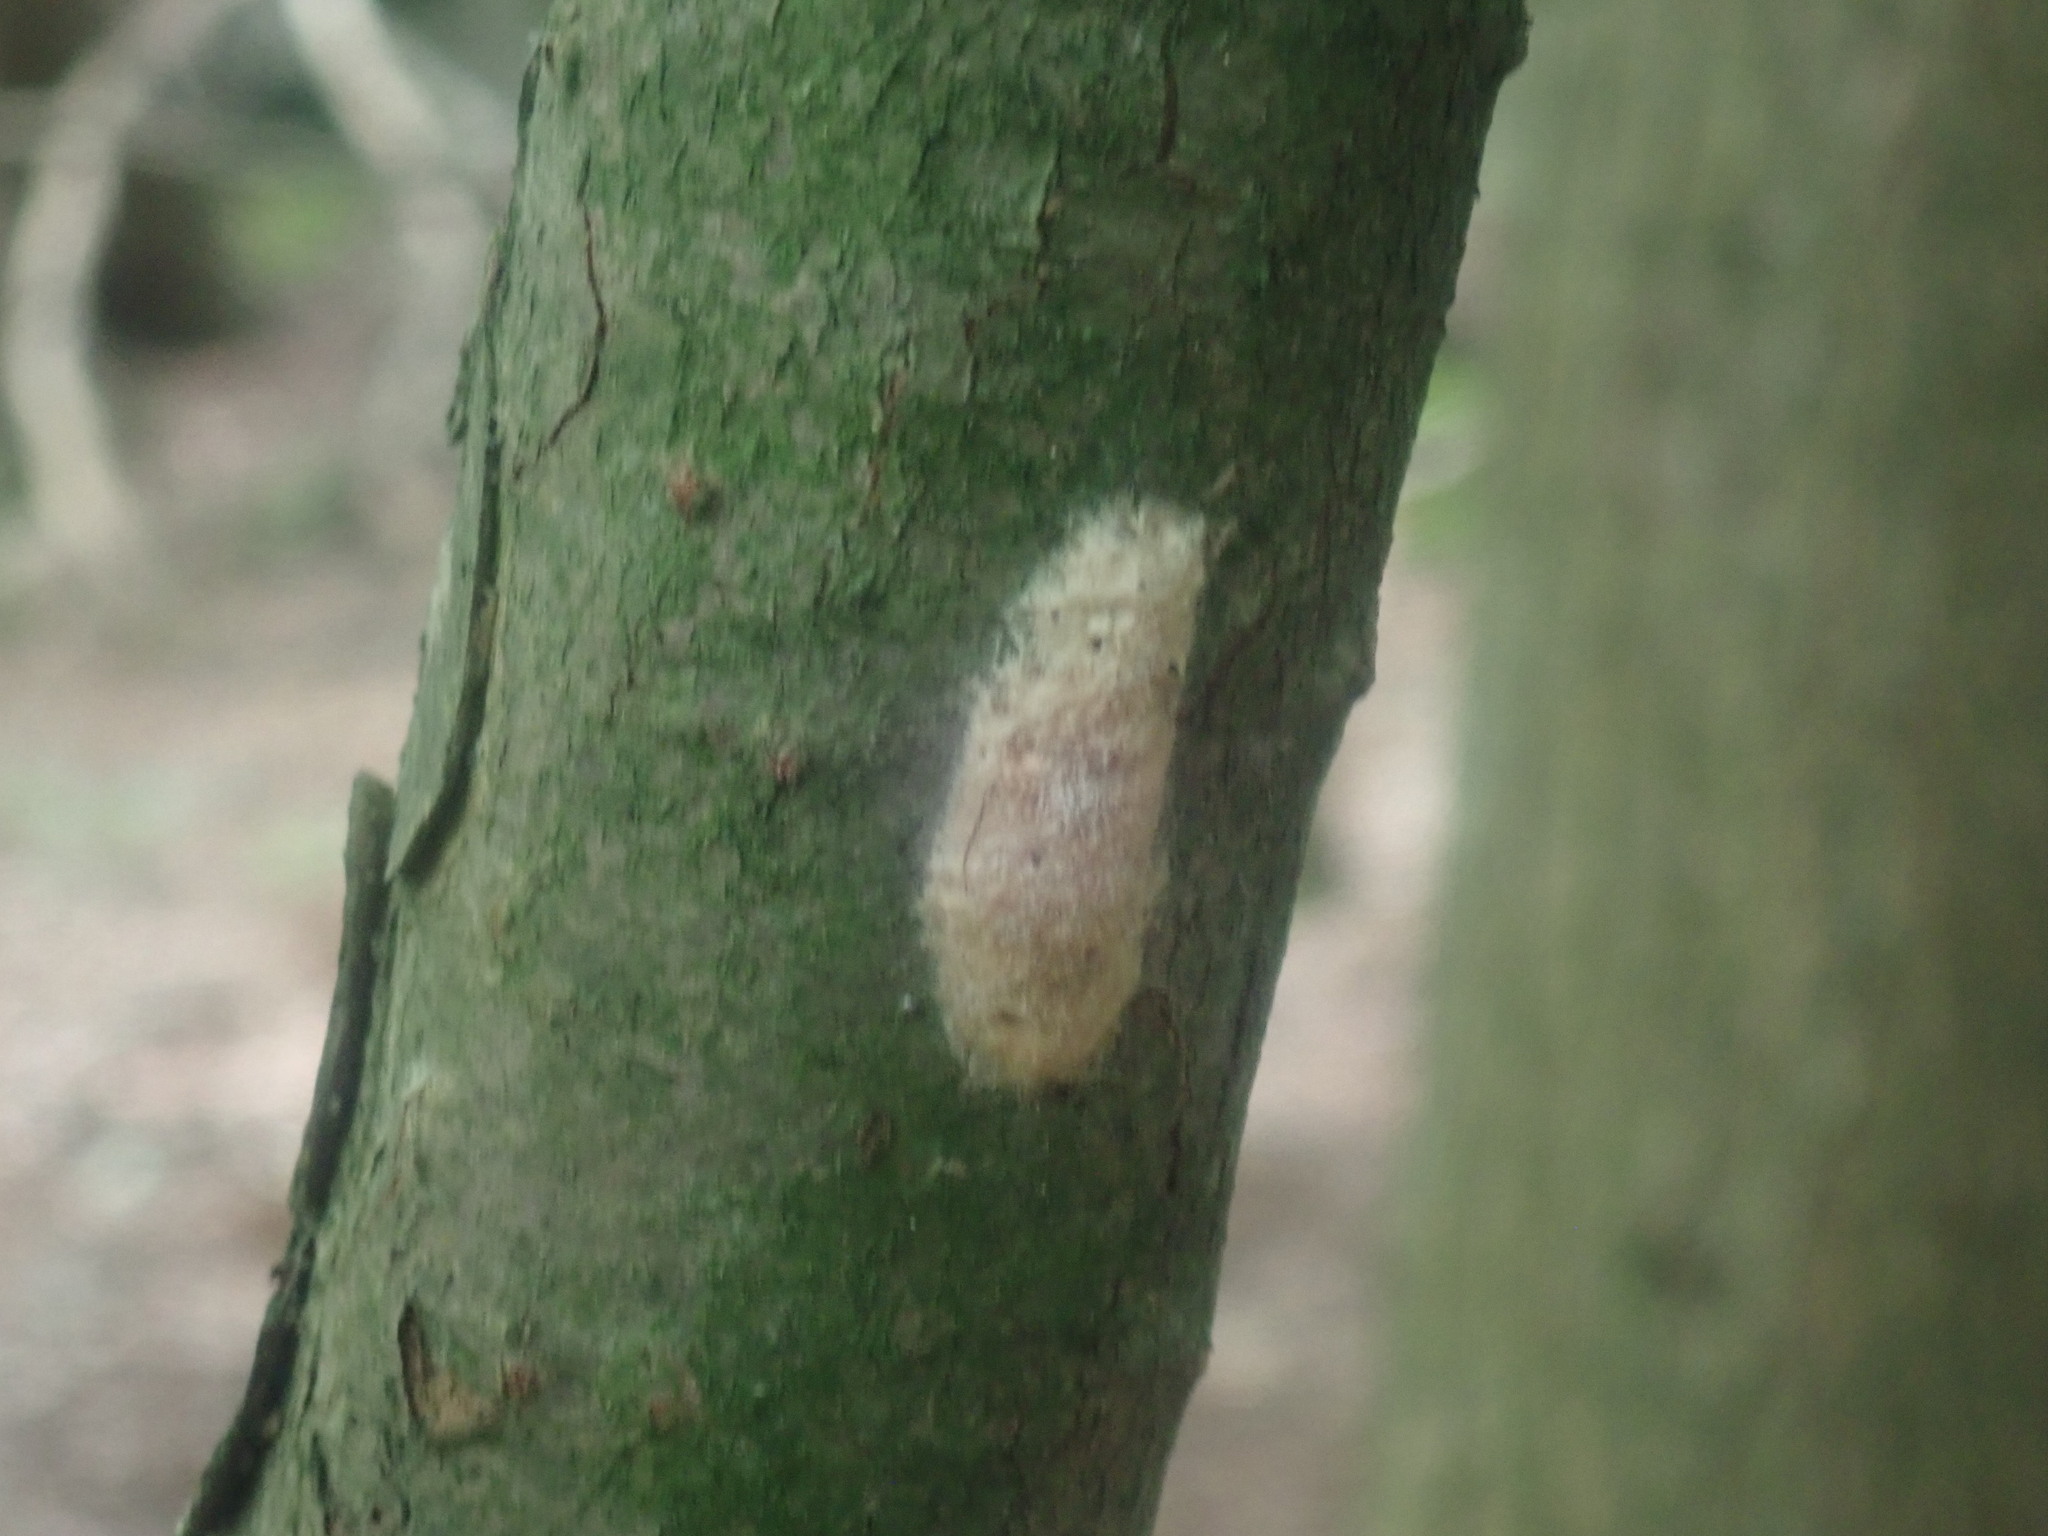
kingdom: Animalia
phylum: Arthropoda
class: Insecta
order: Lepidoptera
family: Erebidae
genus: Lymantria
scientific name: Lymantria dispar
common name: Gypsy moth
